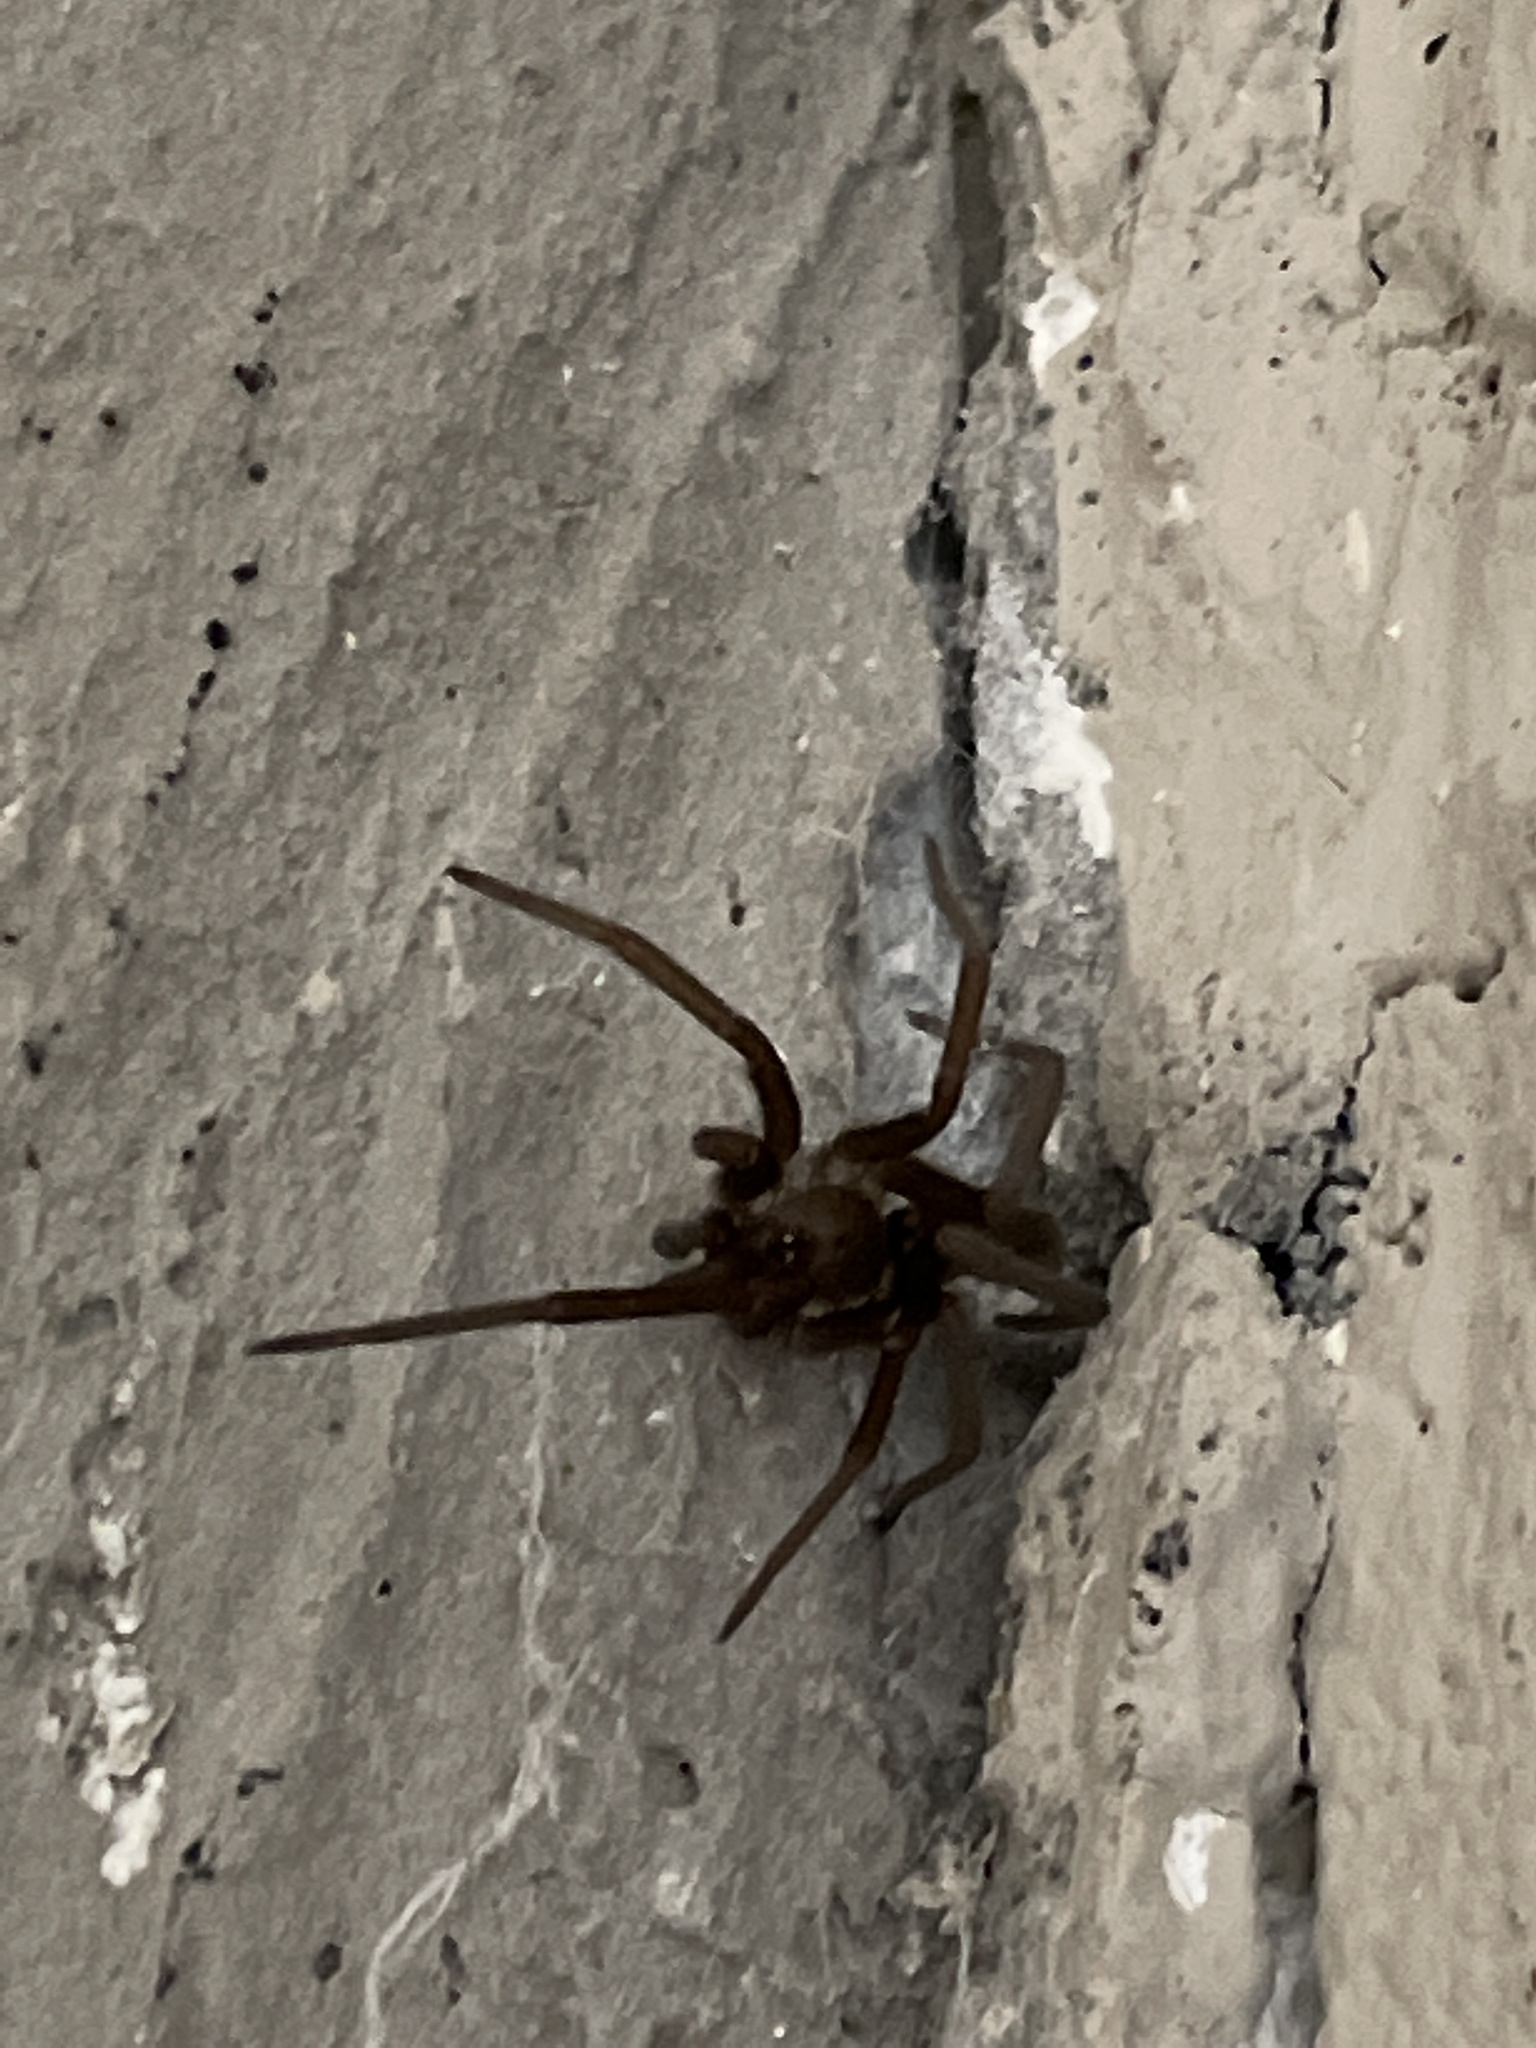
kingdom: Animalia
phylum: Arthropoda
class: Arachnida
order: Araneae
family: Filistatidae
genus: Kukulcania
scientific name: Kukulcania hibernalis
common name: Crevice weaver
